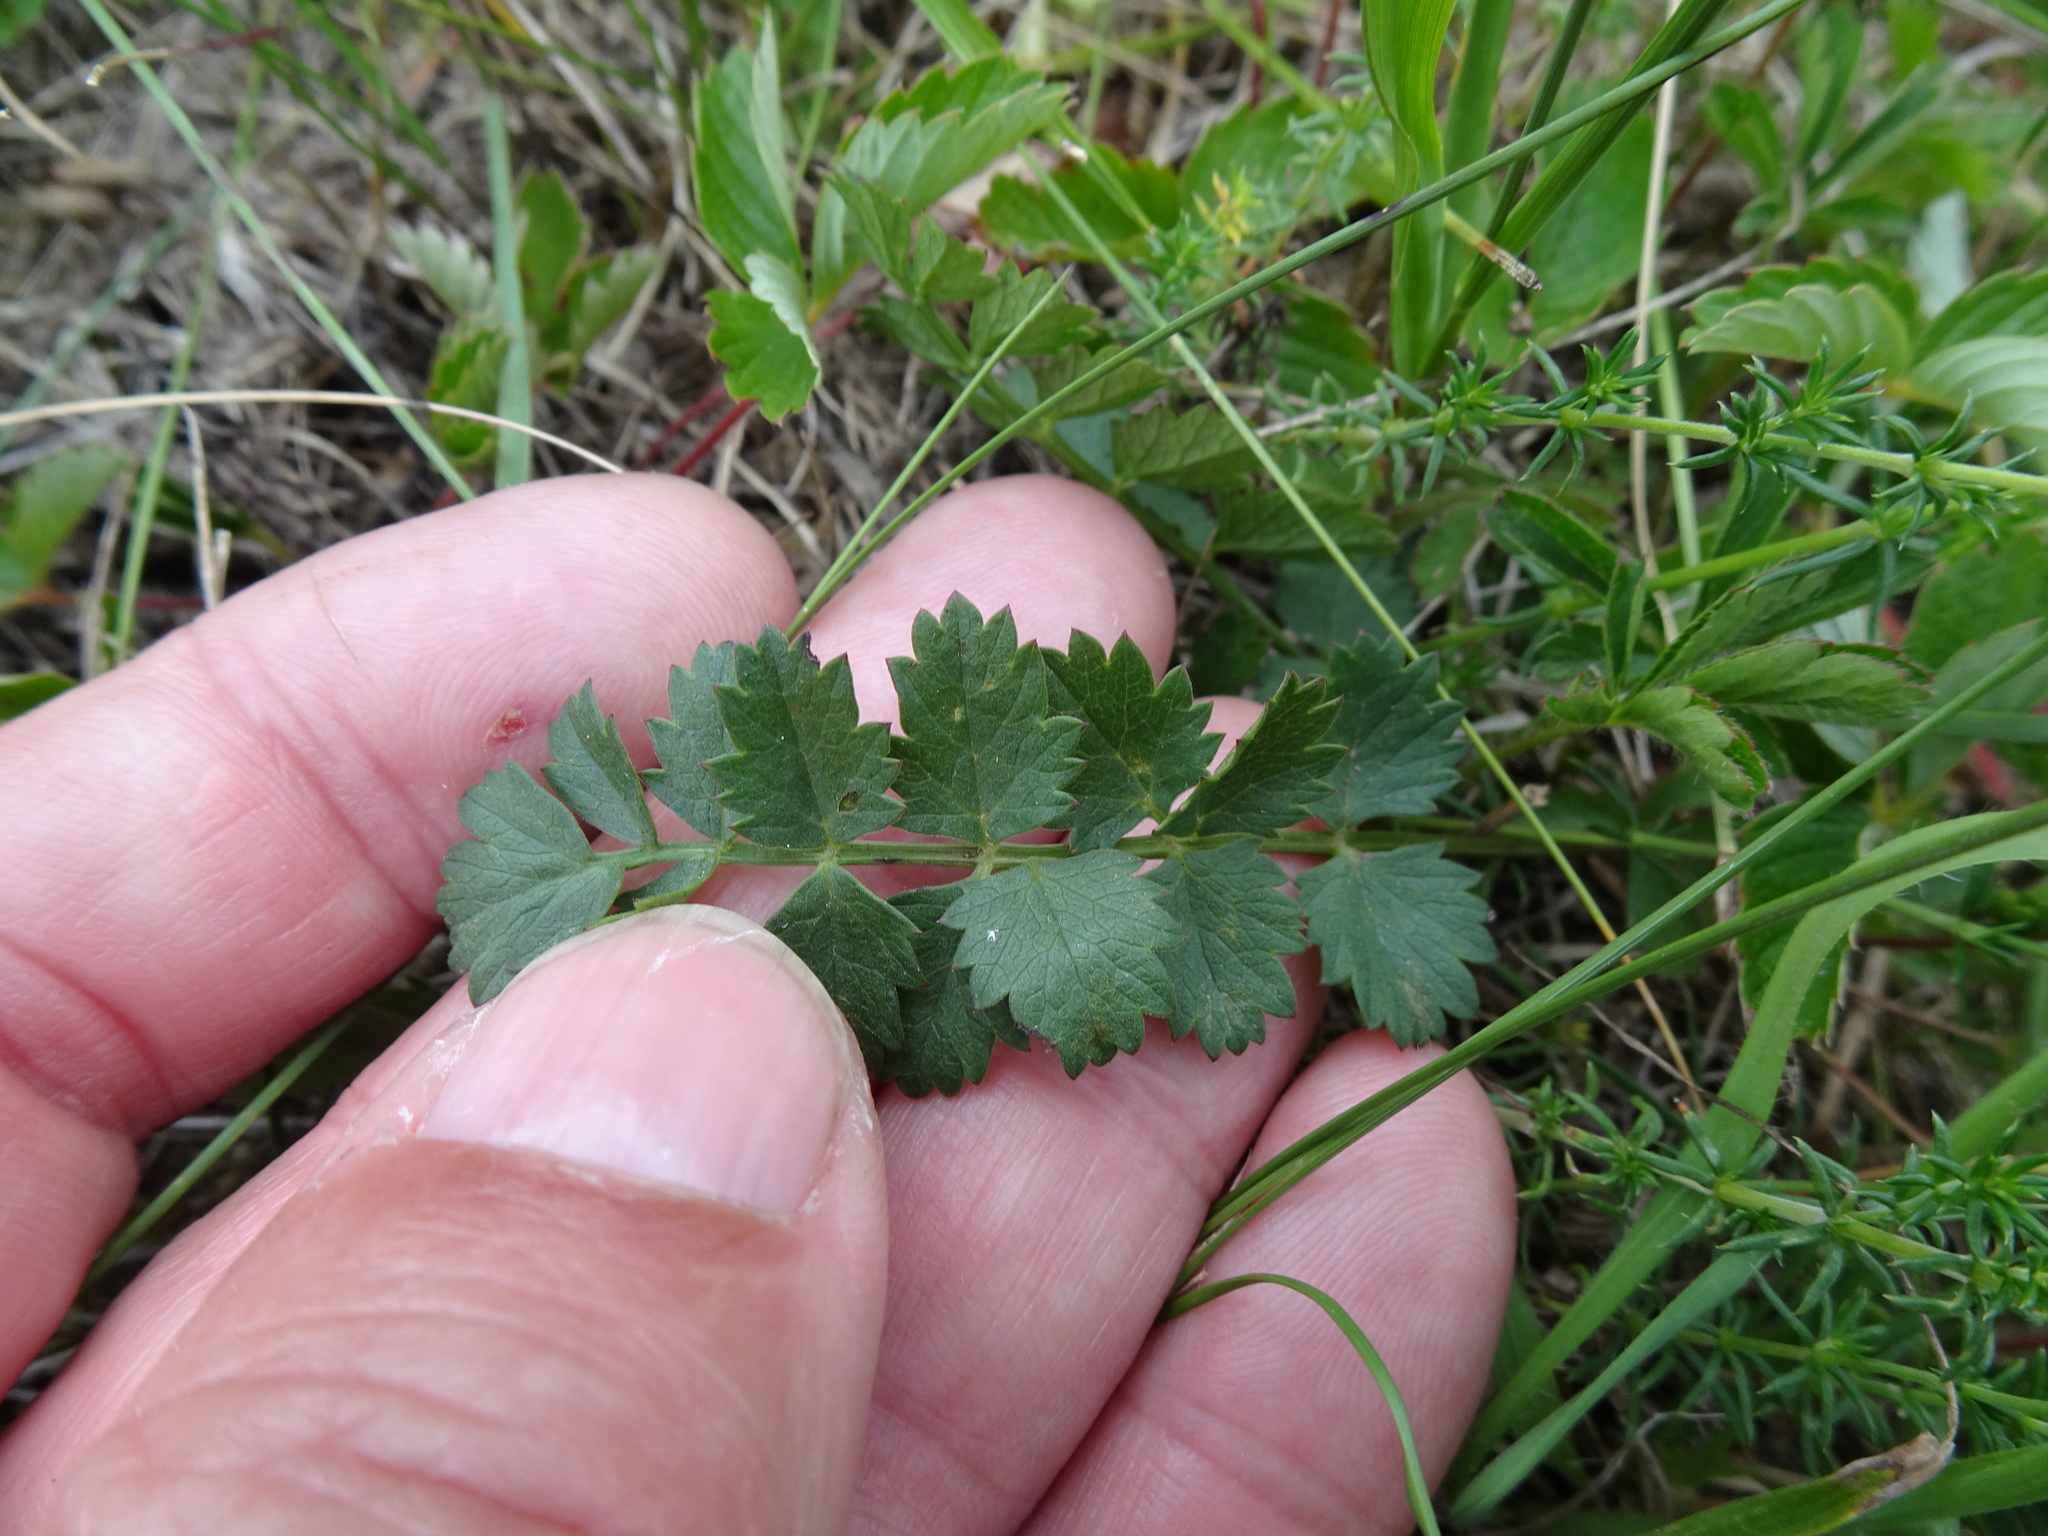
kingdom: Plantae
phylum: Tracheophyta
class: Magnoliopsida
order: Apiales
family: Apiaceae
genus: Pimpinella
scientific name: Pimpinella saxifraga
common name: Burnet-saxifrage
